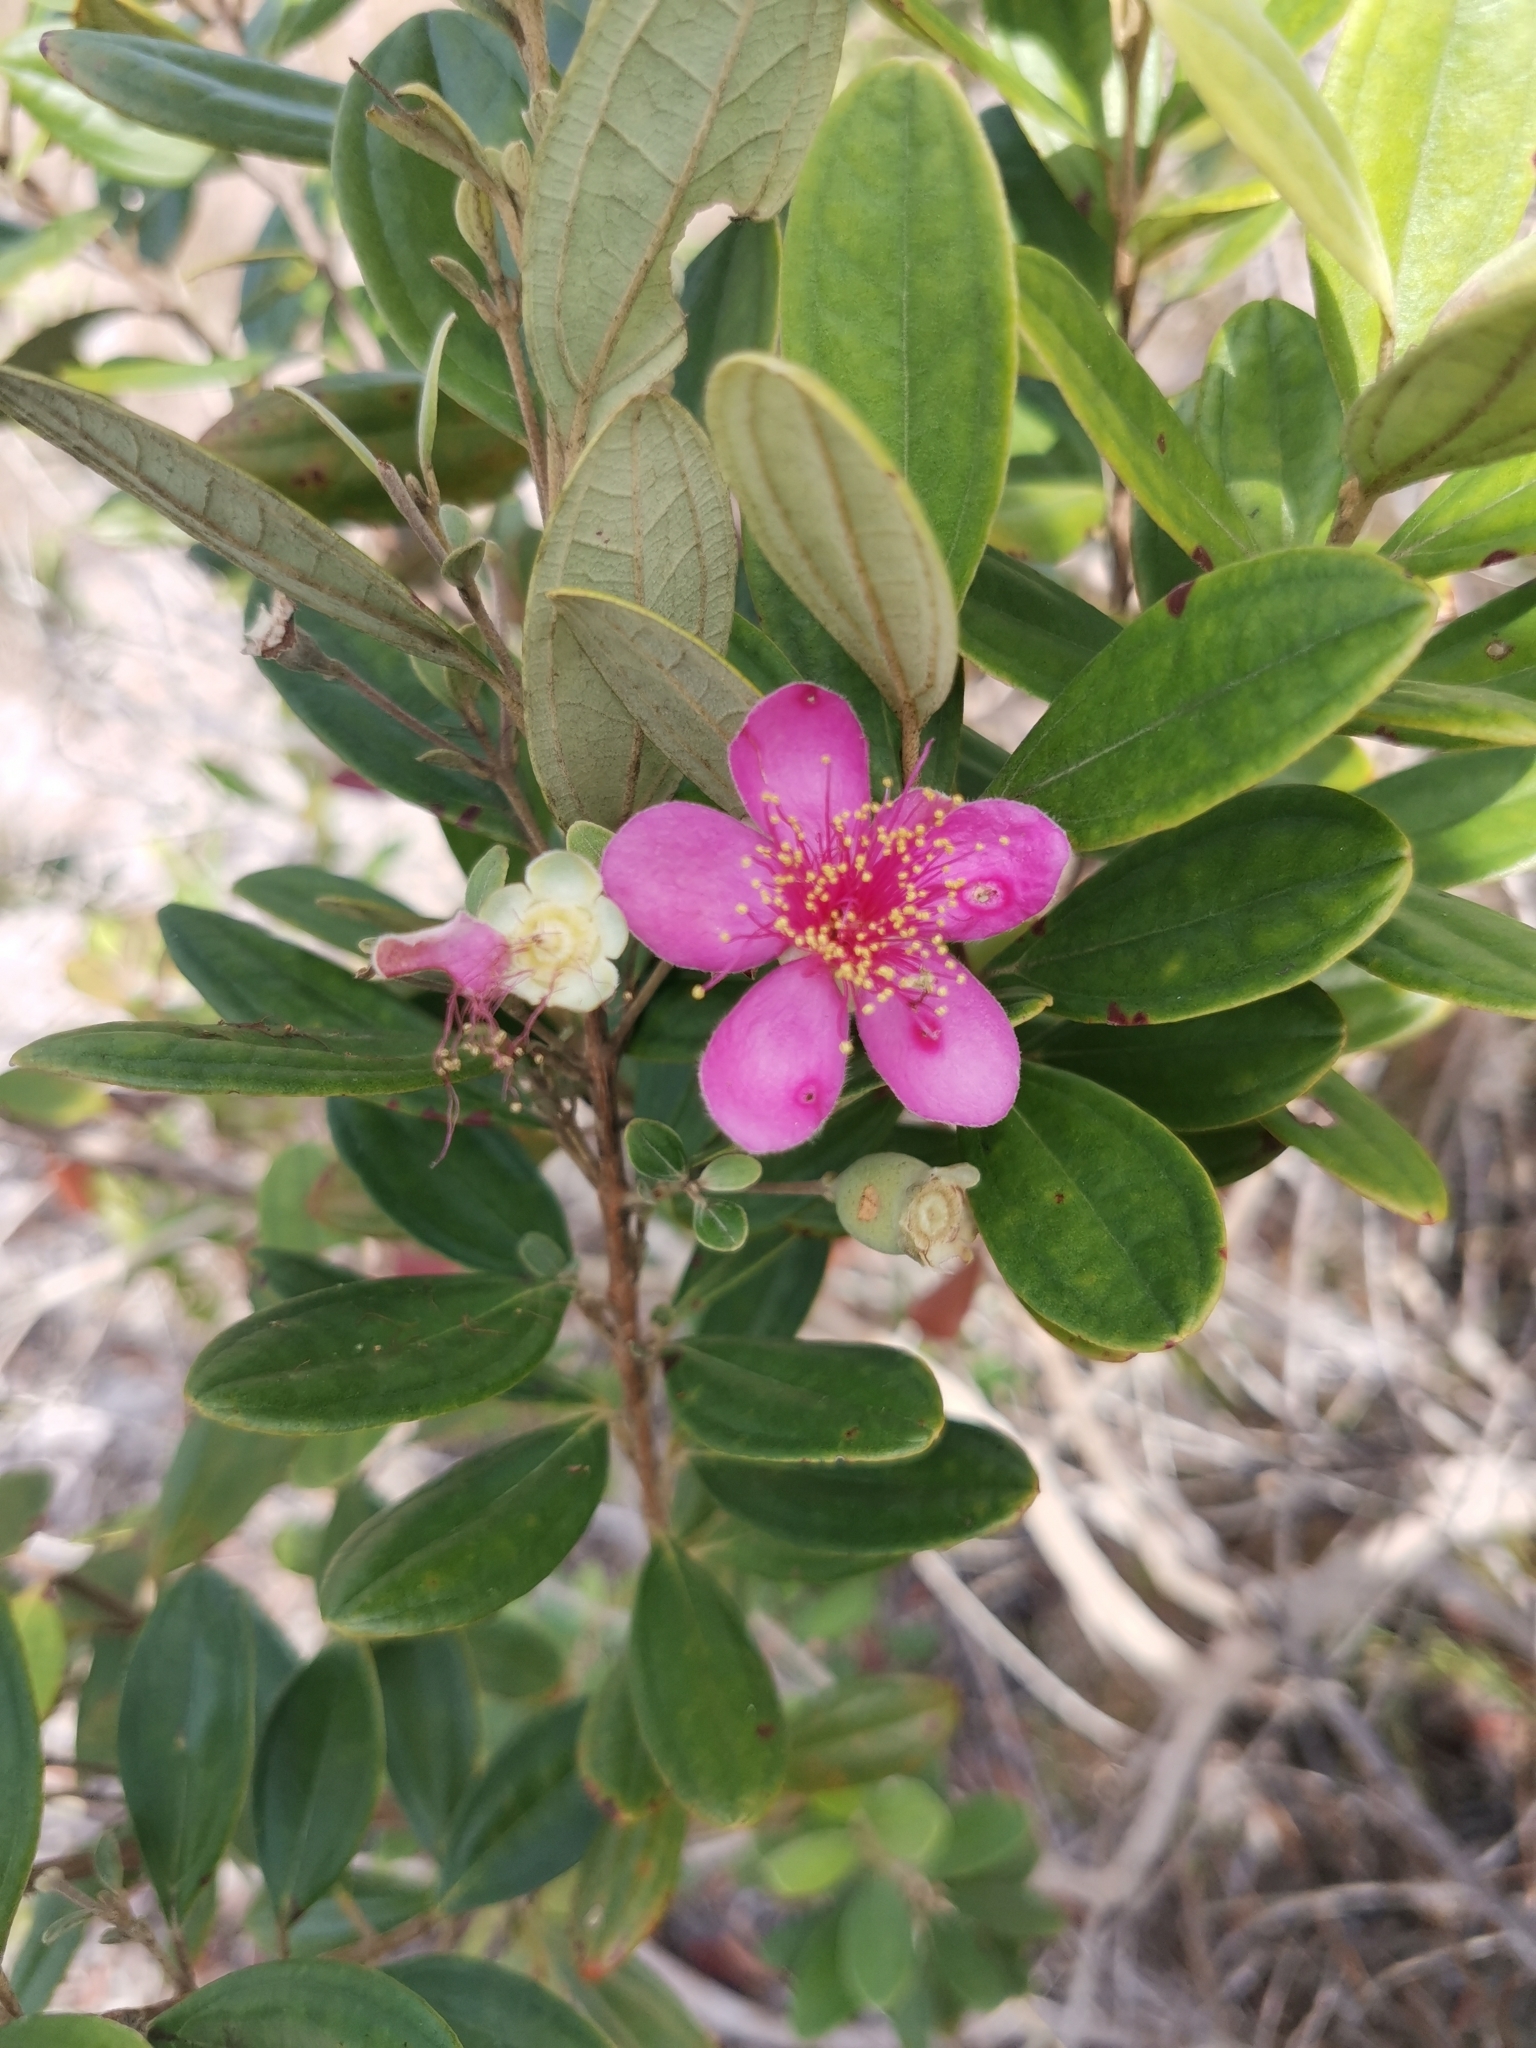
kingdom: Plantae
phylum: Tracheophyta
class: Magnoliopsida
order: Myrtales
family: Myrtaceae
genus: Rhodomyrtus
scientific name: Rhodomyrtus tomentosa
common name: Rose myrtle
